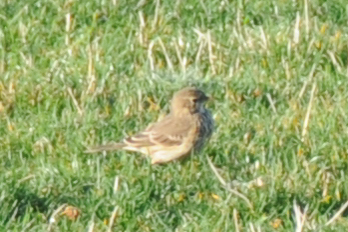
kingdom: Animalia
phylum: Chordata
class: Aves
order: Passeriformes
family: Motacillidae
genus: Anthus
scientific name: Anthus rubescens
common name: Buff-bellied pipit
